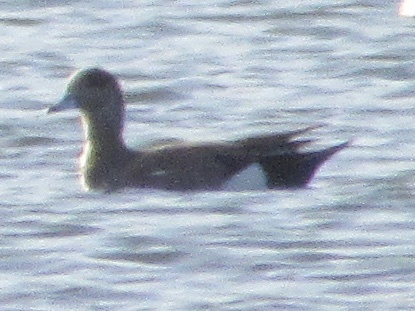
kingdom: Animalia
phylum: Chordata
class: Aves
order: Anseriformes
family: Anatidae
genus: Mareca
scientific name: Mareca americana
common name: American wigeon
